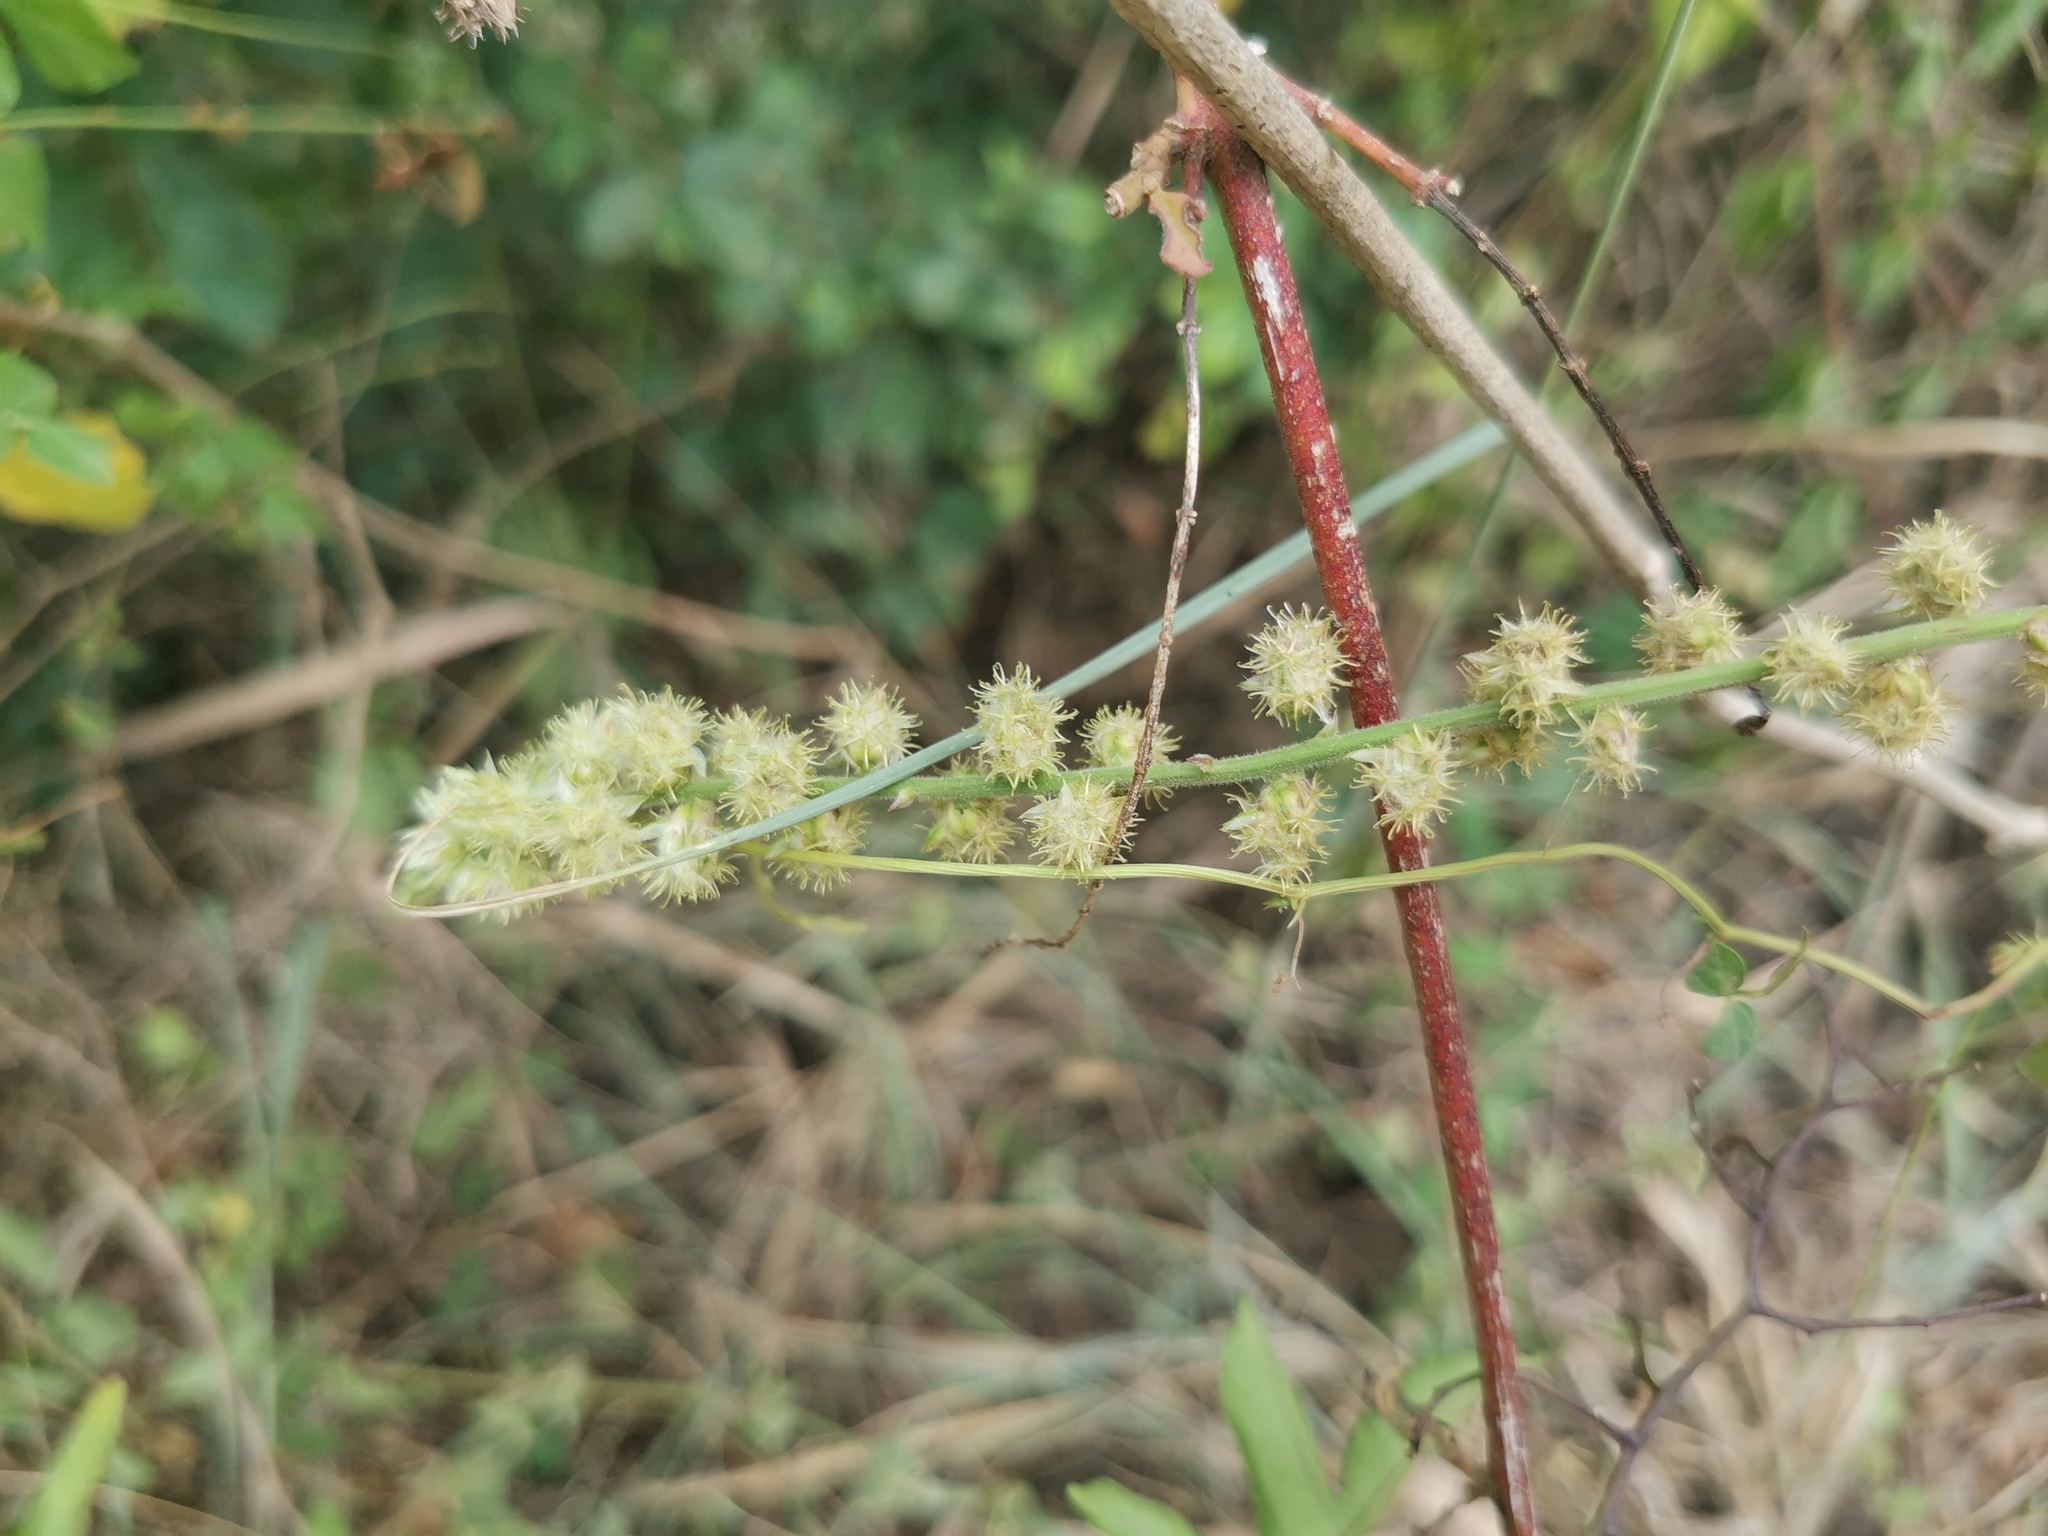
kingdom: Plantae
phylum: Tracheophyta
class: Magnoliopsida
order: Caryophyllales
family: Amaranthaceae
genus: Pupalia
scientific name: Pupalia lappacea
